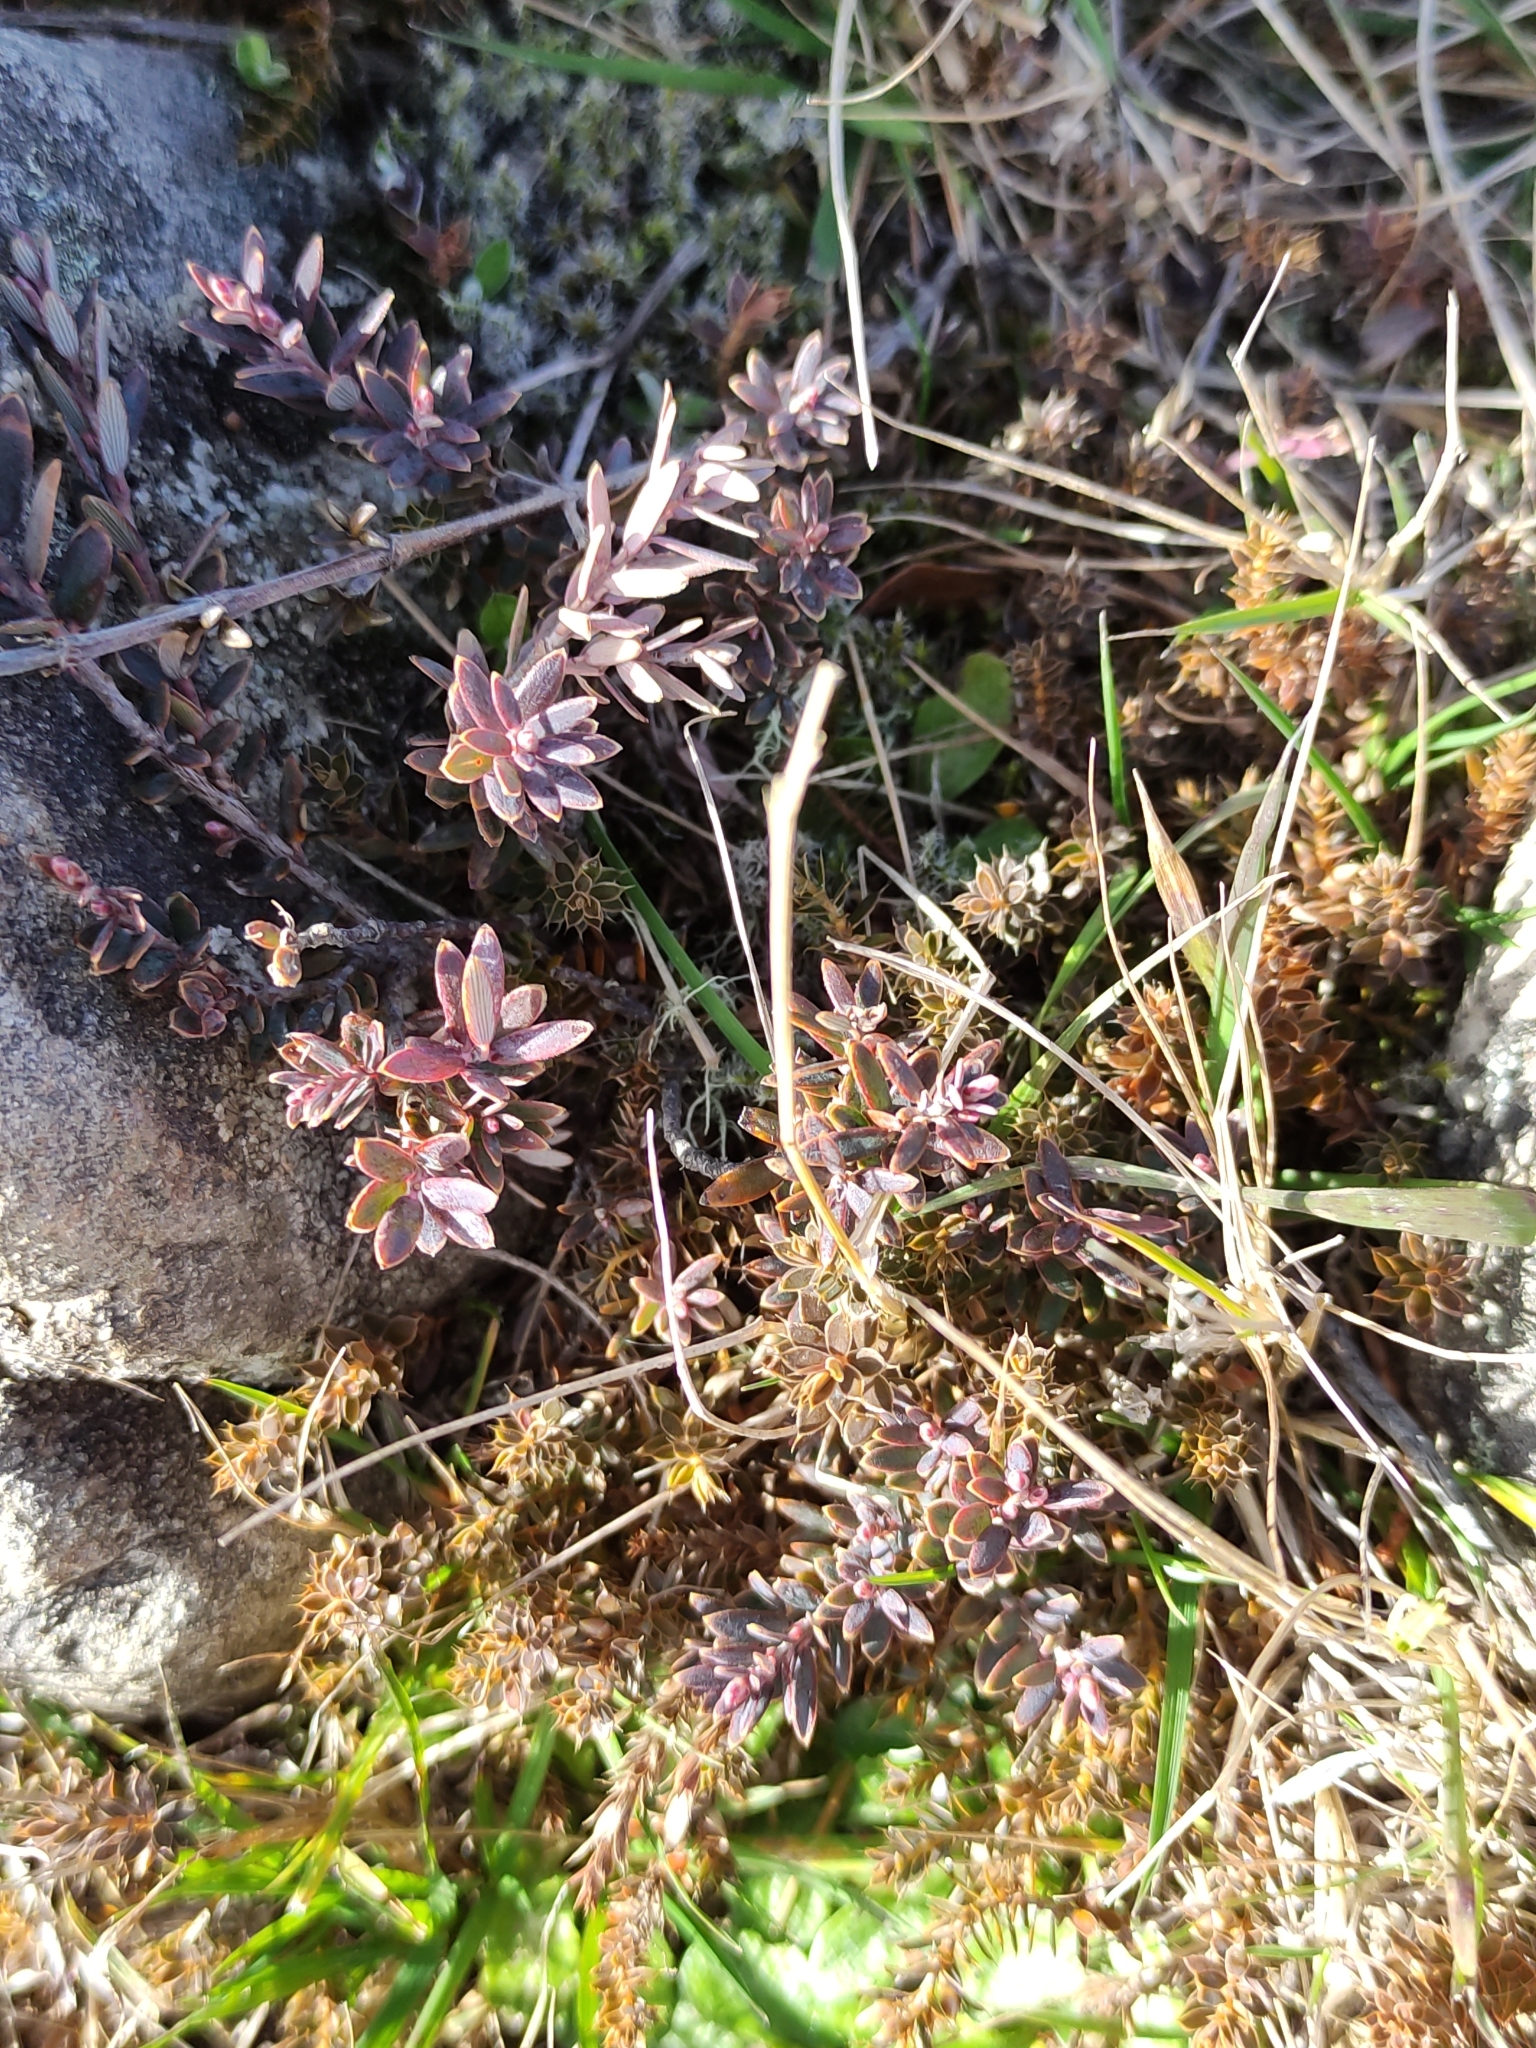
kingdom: Plantae
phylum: Tracheophyta
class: Magnoliopsida
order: Ericales
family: Ericaceae
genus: Acrothamnus
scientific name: Acrothamnus colensoi
